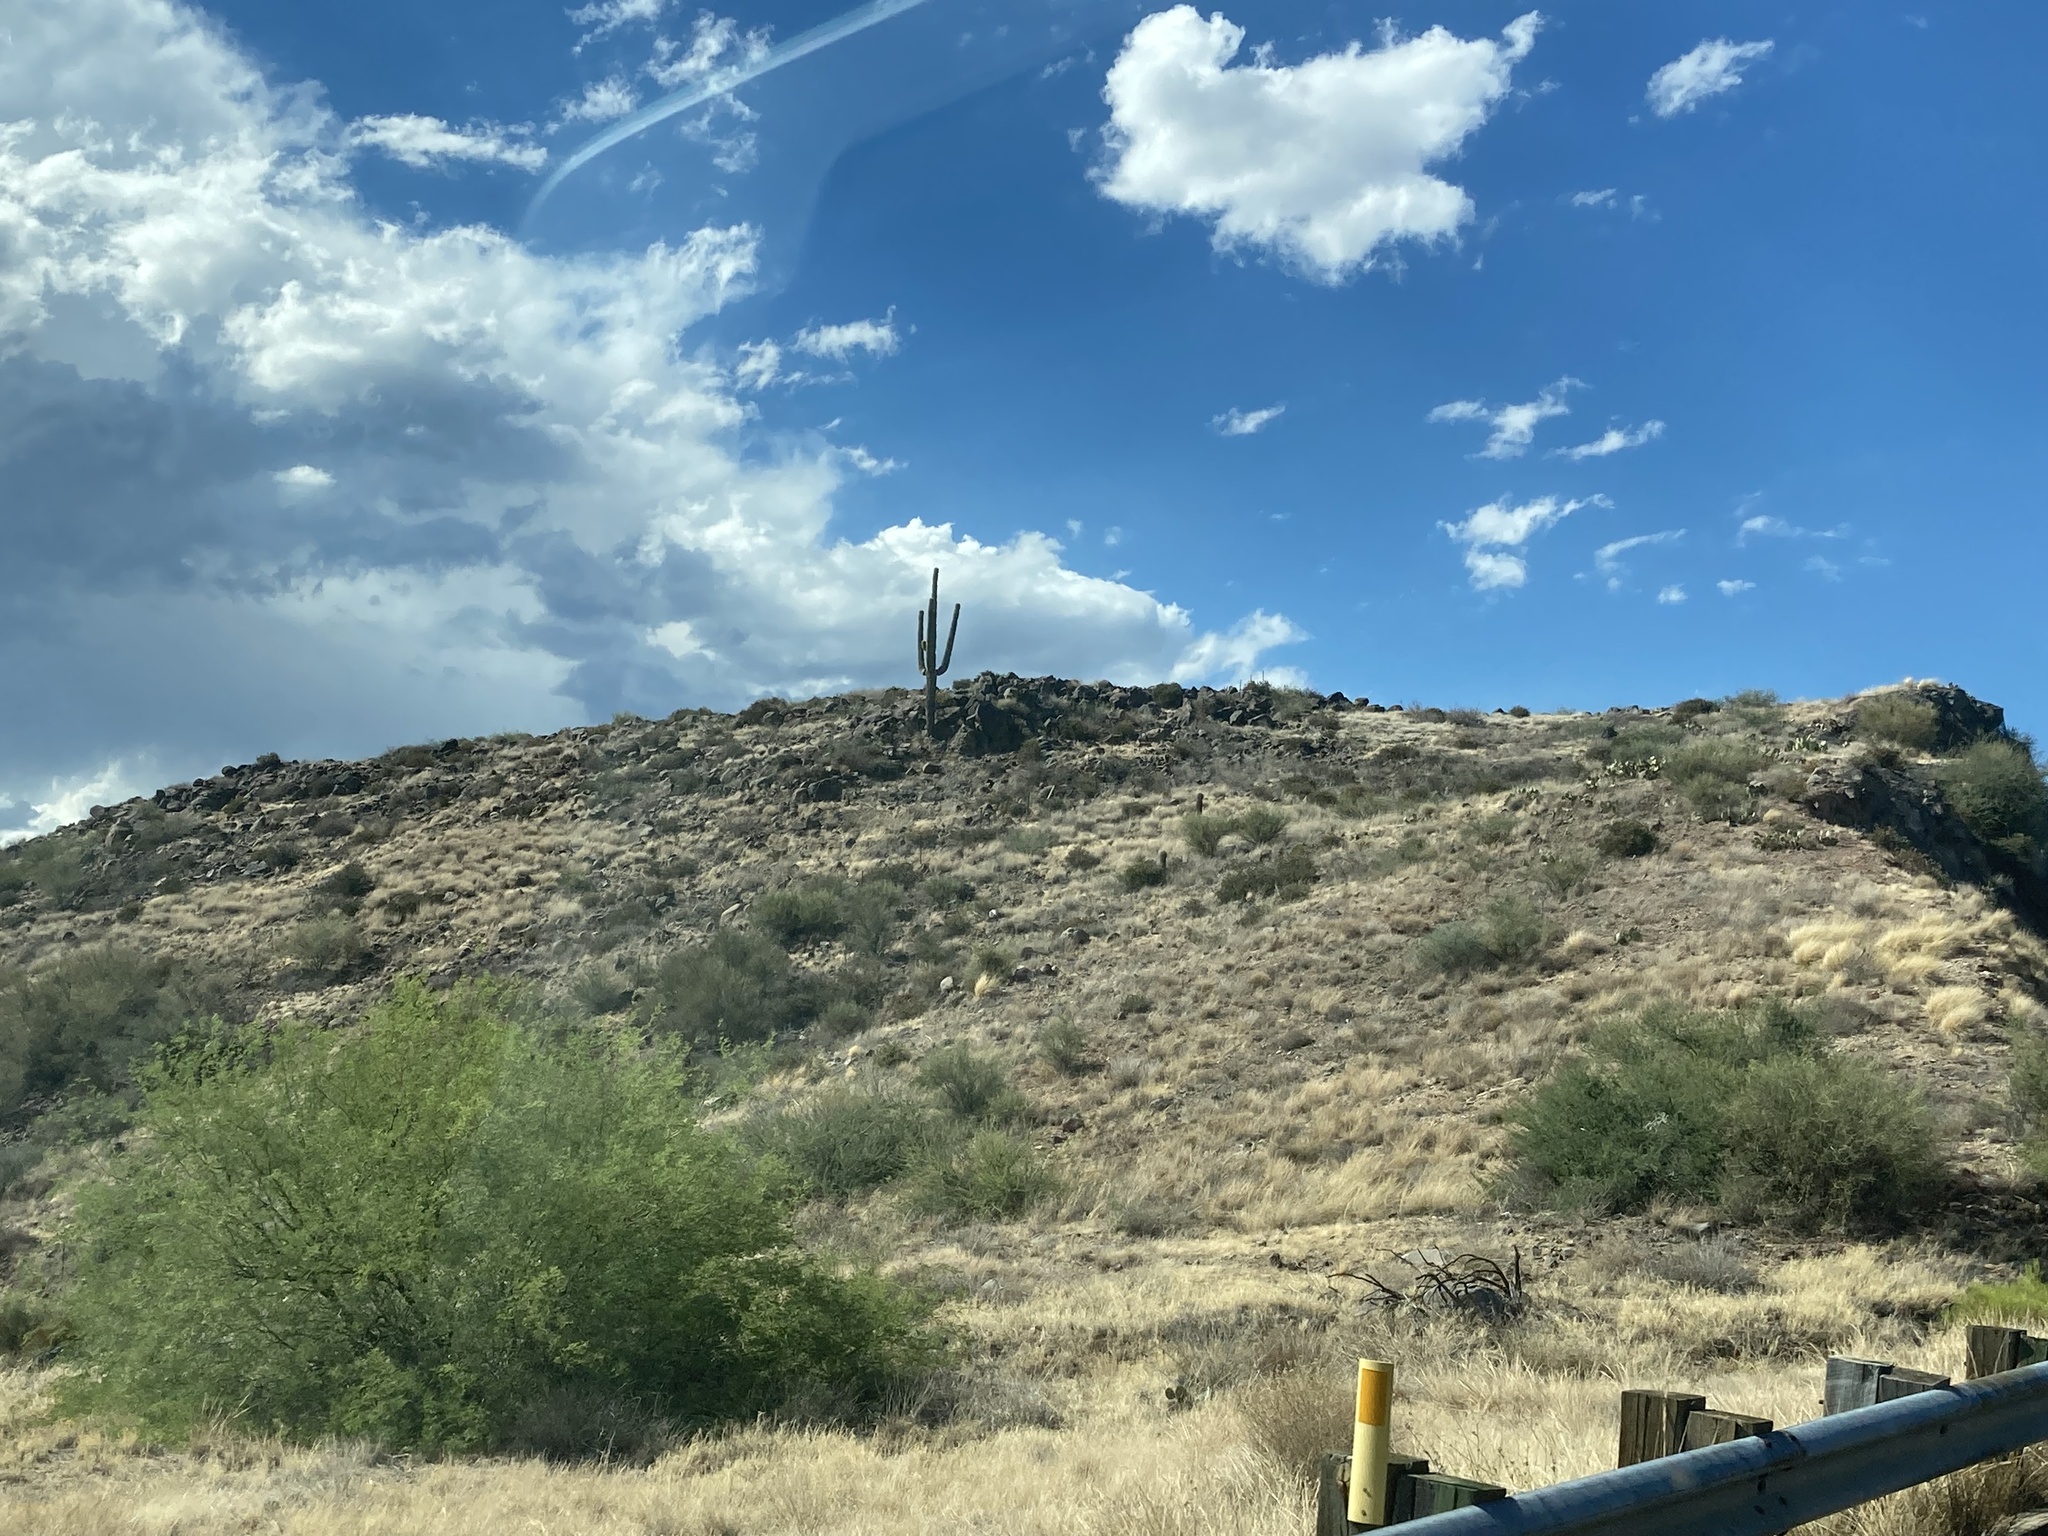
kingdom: Plantae
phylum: Tracheophyta
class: Magnoliopsida
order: Caryophyllales
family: Cactaceae
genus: Carnegiea
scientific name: Carnegiea gigantea
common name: Saguaro
